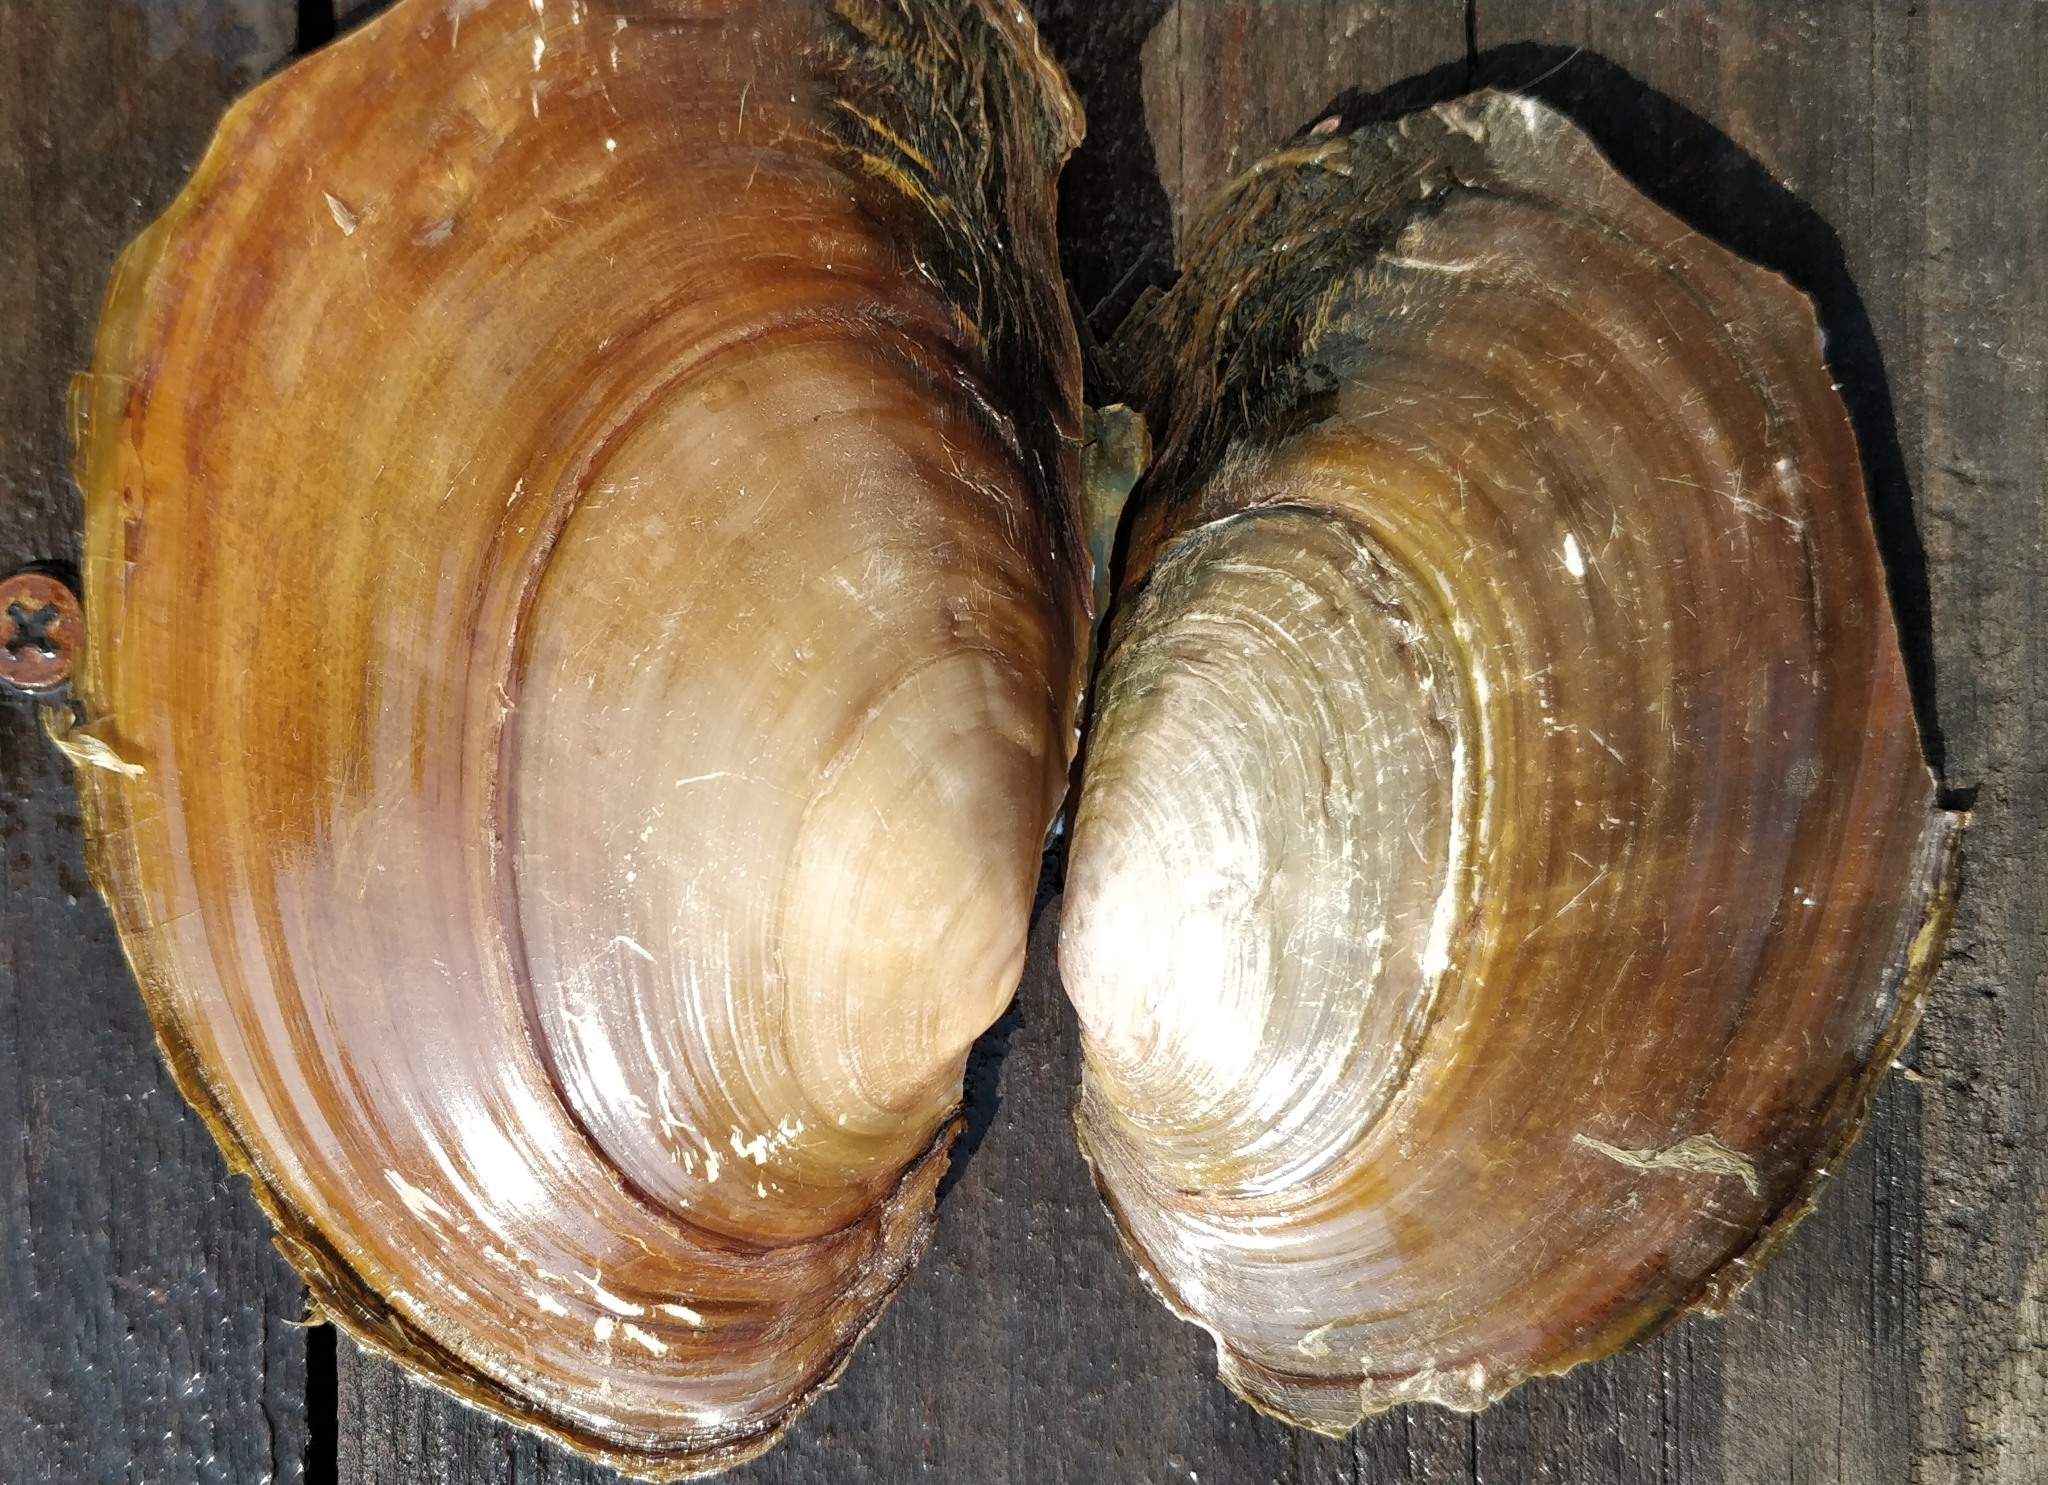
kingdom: Animalia
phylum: Mollusca
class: Bivalvia
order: Unionida
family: Unionidae
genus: Potamilus
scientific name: Potamilus ohiensis
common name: Pink papershell
